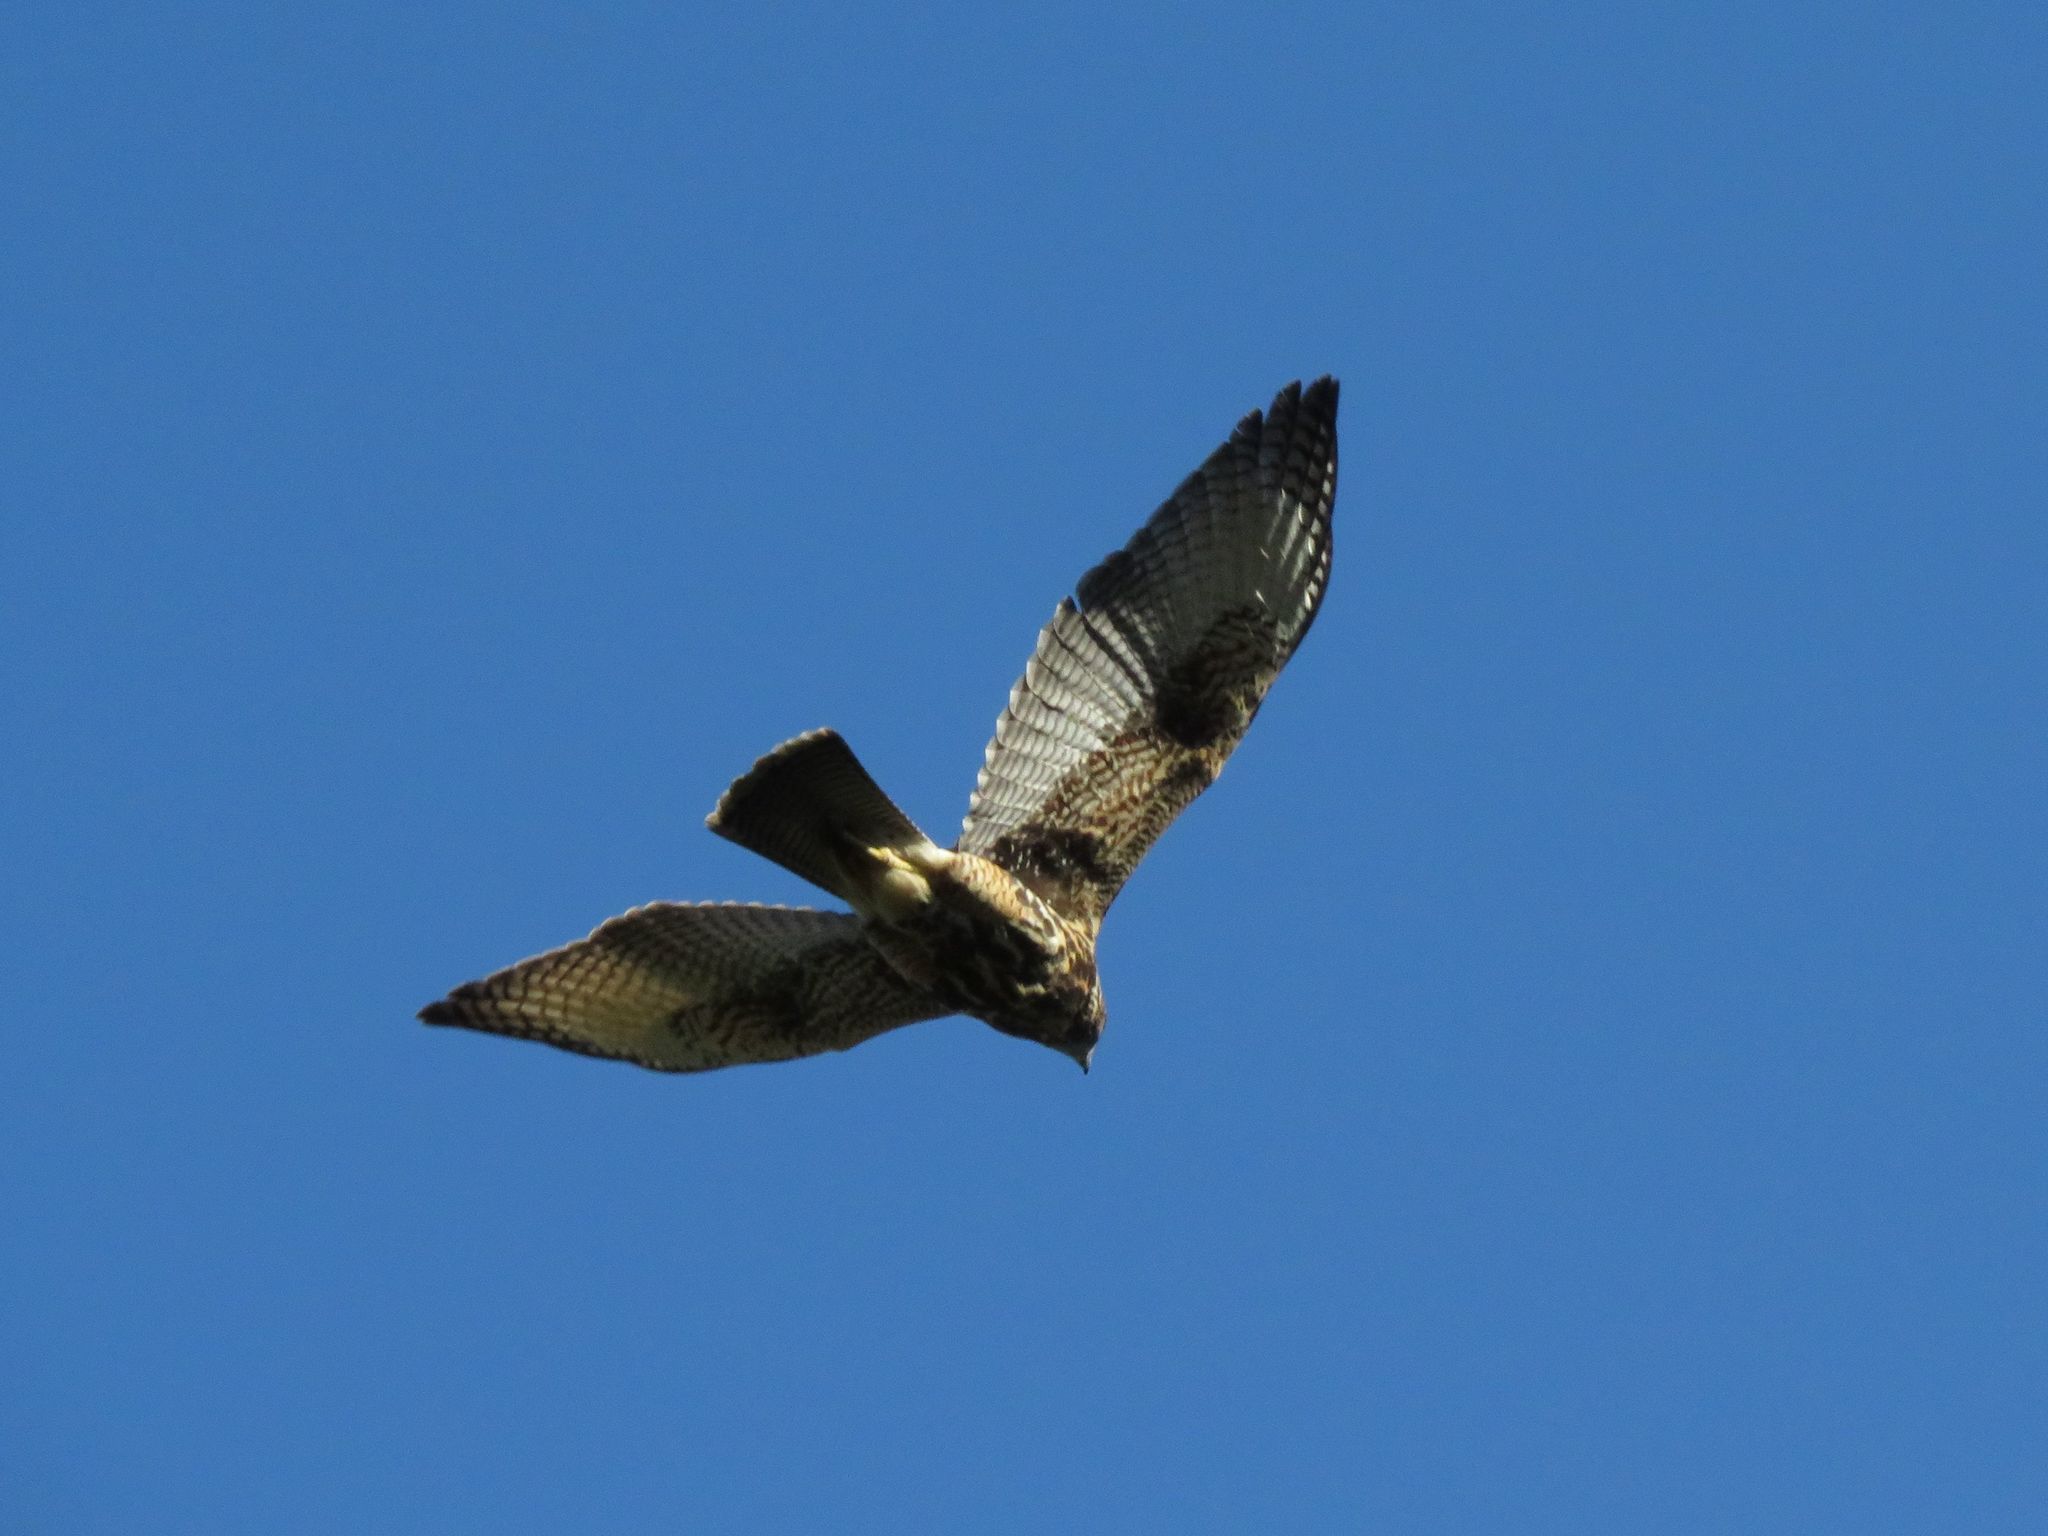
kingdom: Animalia
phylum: Chordata
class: Aves
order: Accipitriformes
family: Accipitridae
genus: Parabuteo
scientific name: Parabuteo unicinctus
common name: Harris's hawk
